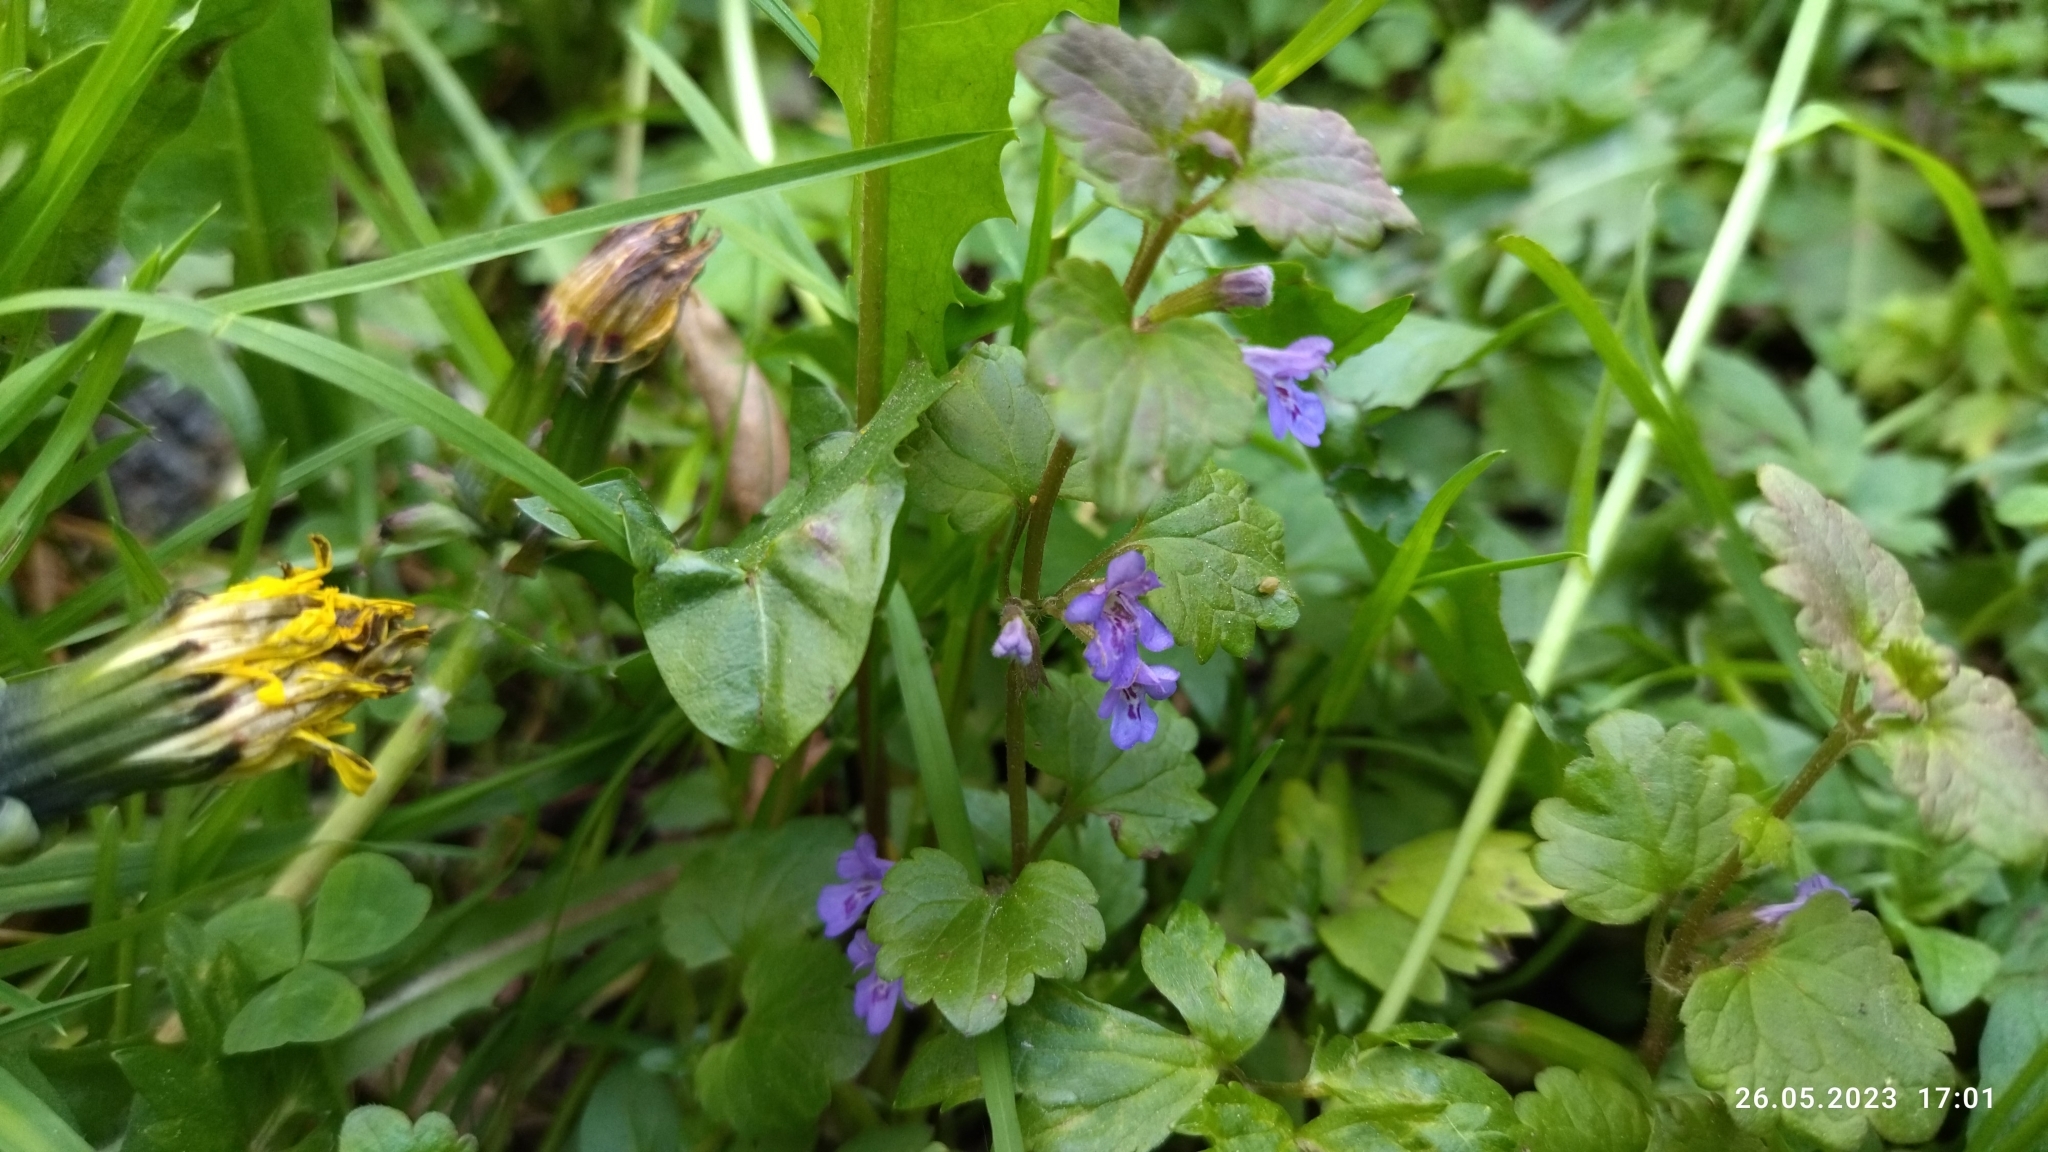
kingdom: Plantae
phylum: Tracheophyta
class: Magnoliopsida
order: Lamiales
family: Lamiaceae
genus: Glechoma
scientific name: Glechoma hederacea
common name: Ground ivy
